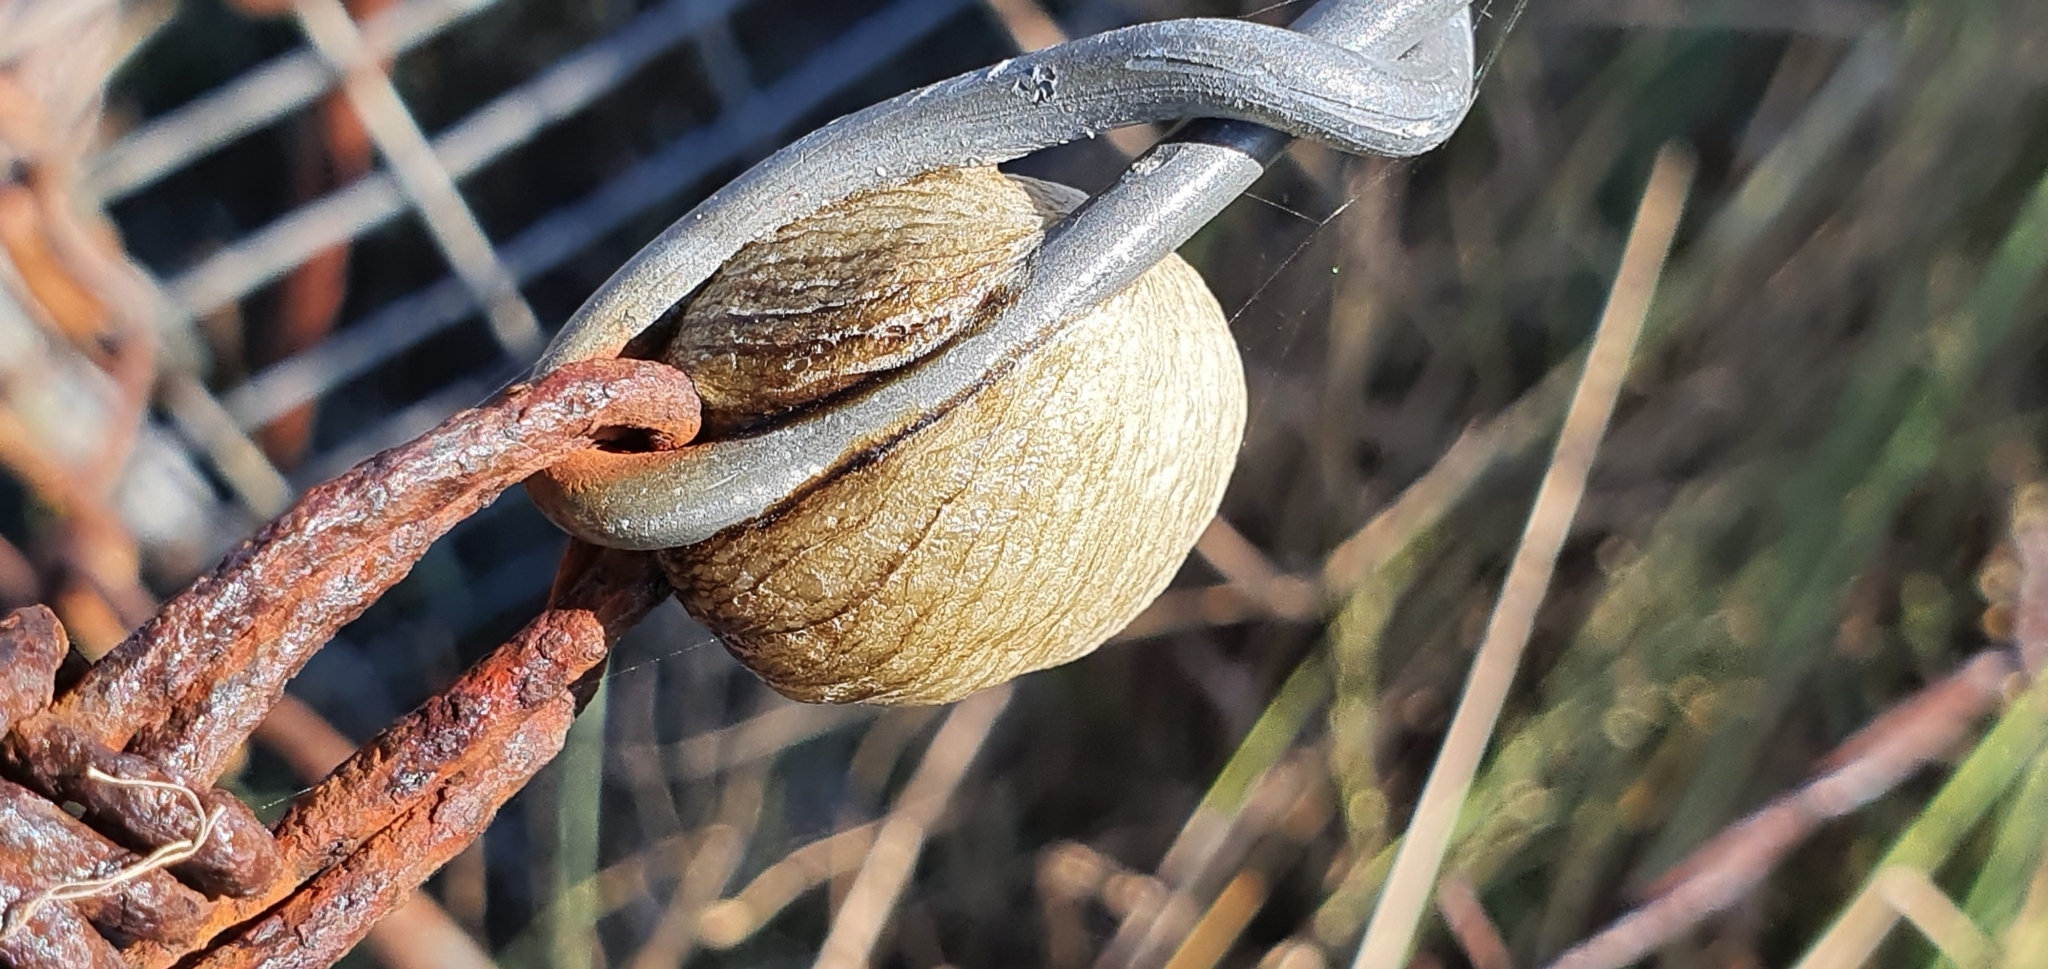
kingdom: Animalia
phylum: Arthropoda
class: Insecta
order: Mantodea
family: Mantidae
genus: Archimantis
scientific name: Archimantis latistyla
